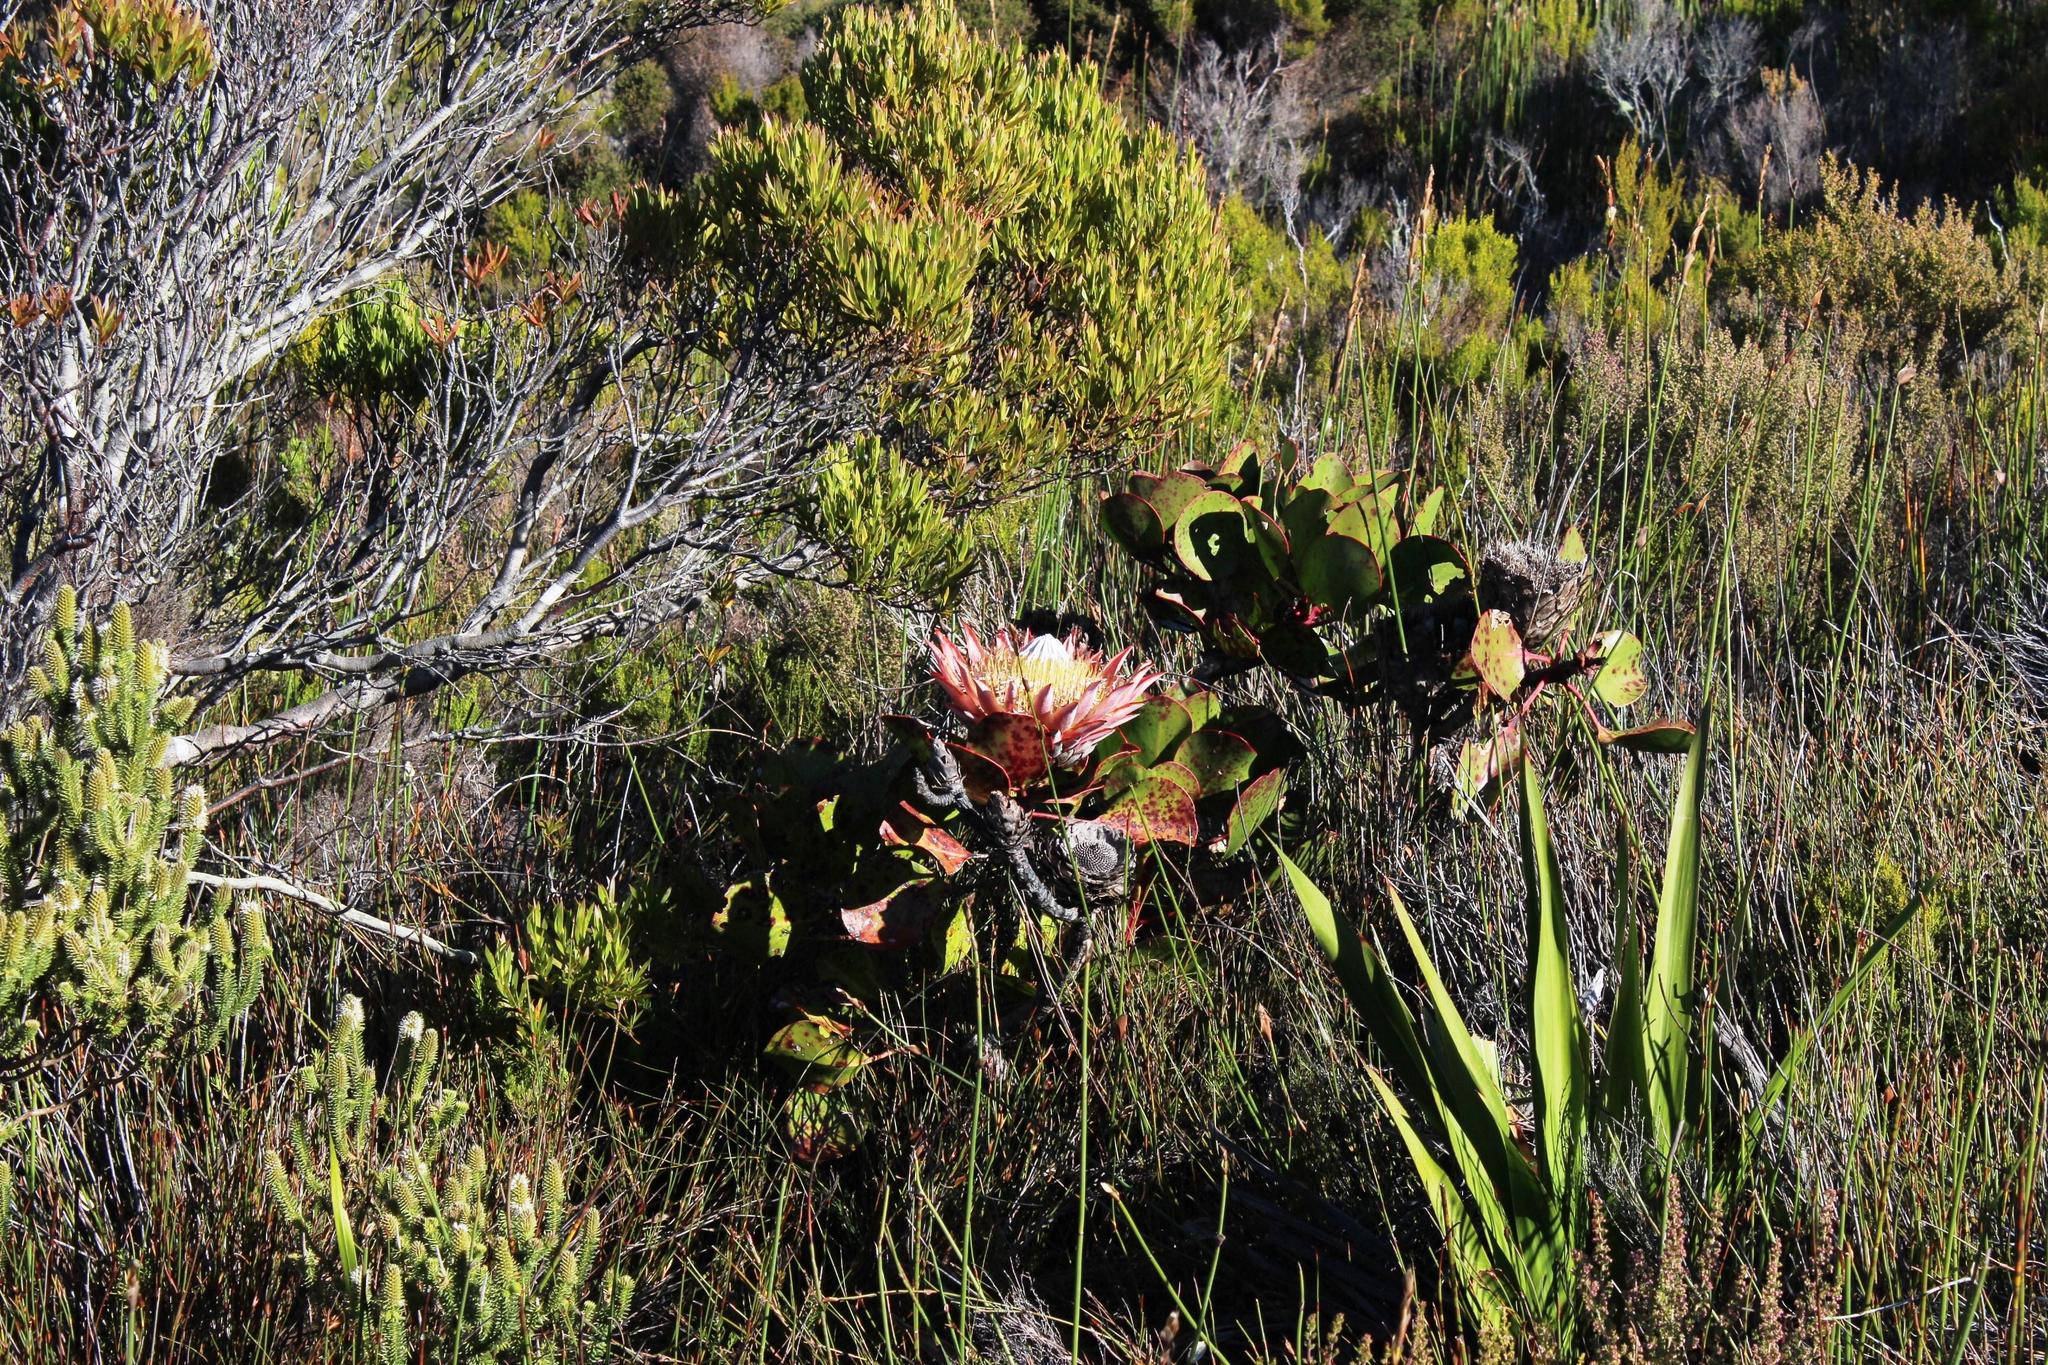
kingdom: Plantae
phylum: Tracheophyta
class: Magnoliopsida
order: Proteales
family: Proteaceae
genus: Protea
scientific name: Protea cynaroides
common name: King protea
